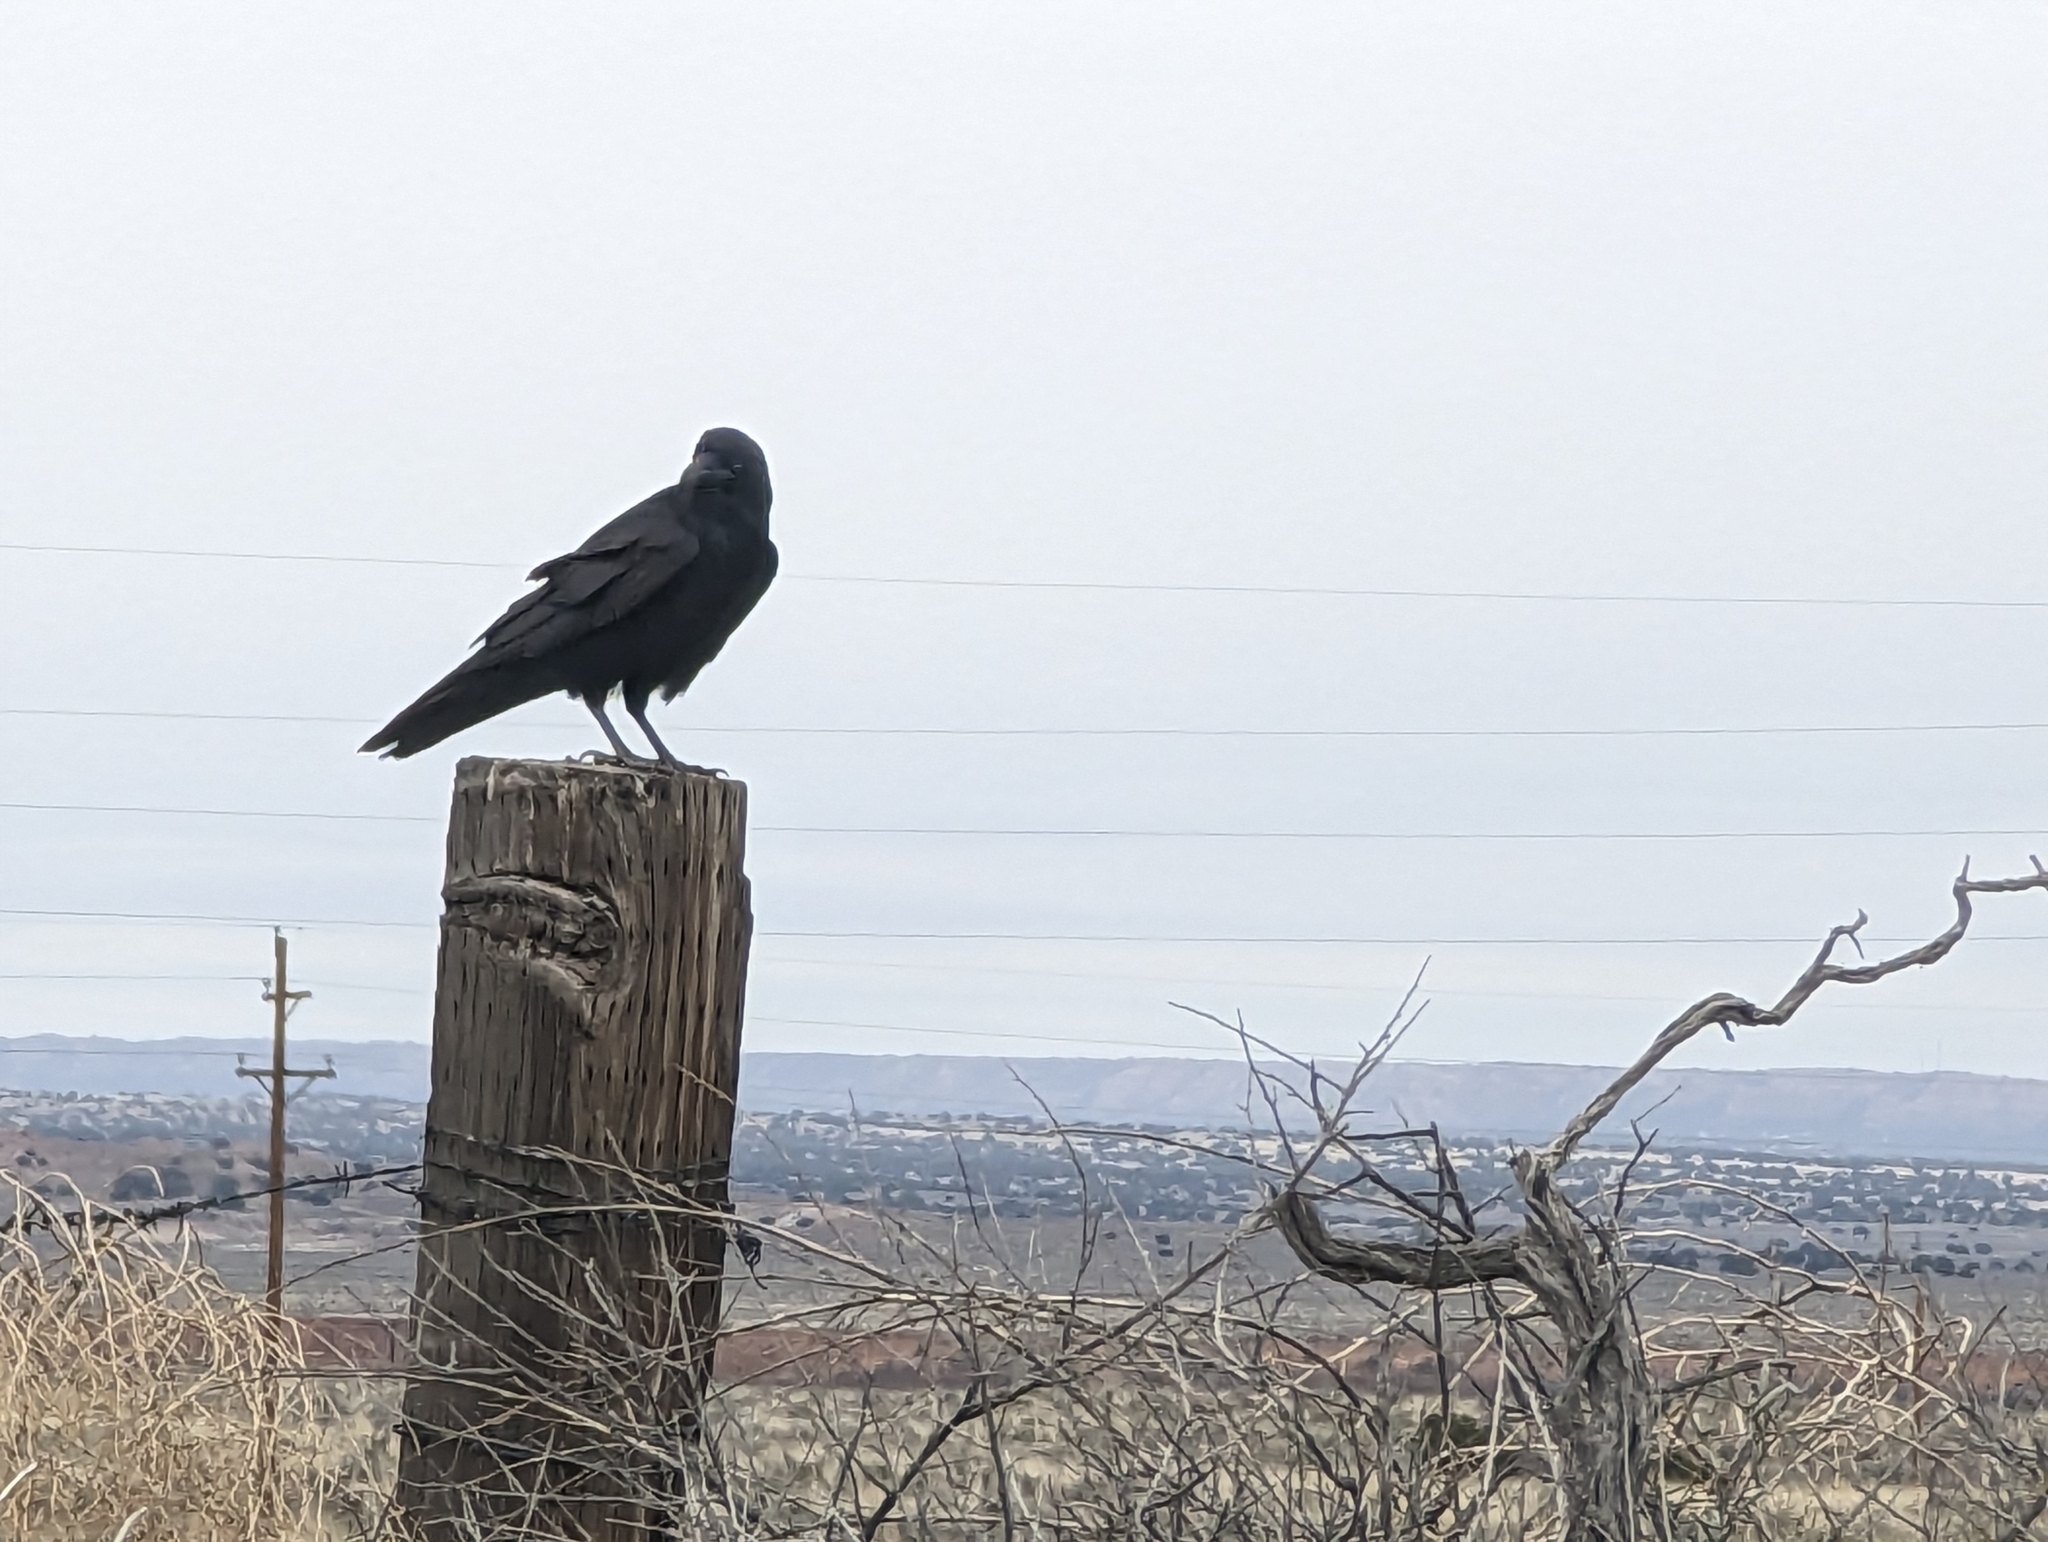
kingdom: Animalia
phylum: Chordata
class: Aves
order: Passeriformes
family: Corvidae
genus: Corvus
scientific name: Corvus corax
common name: Common raven
